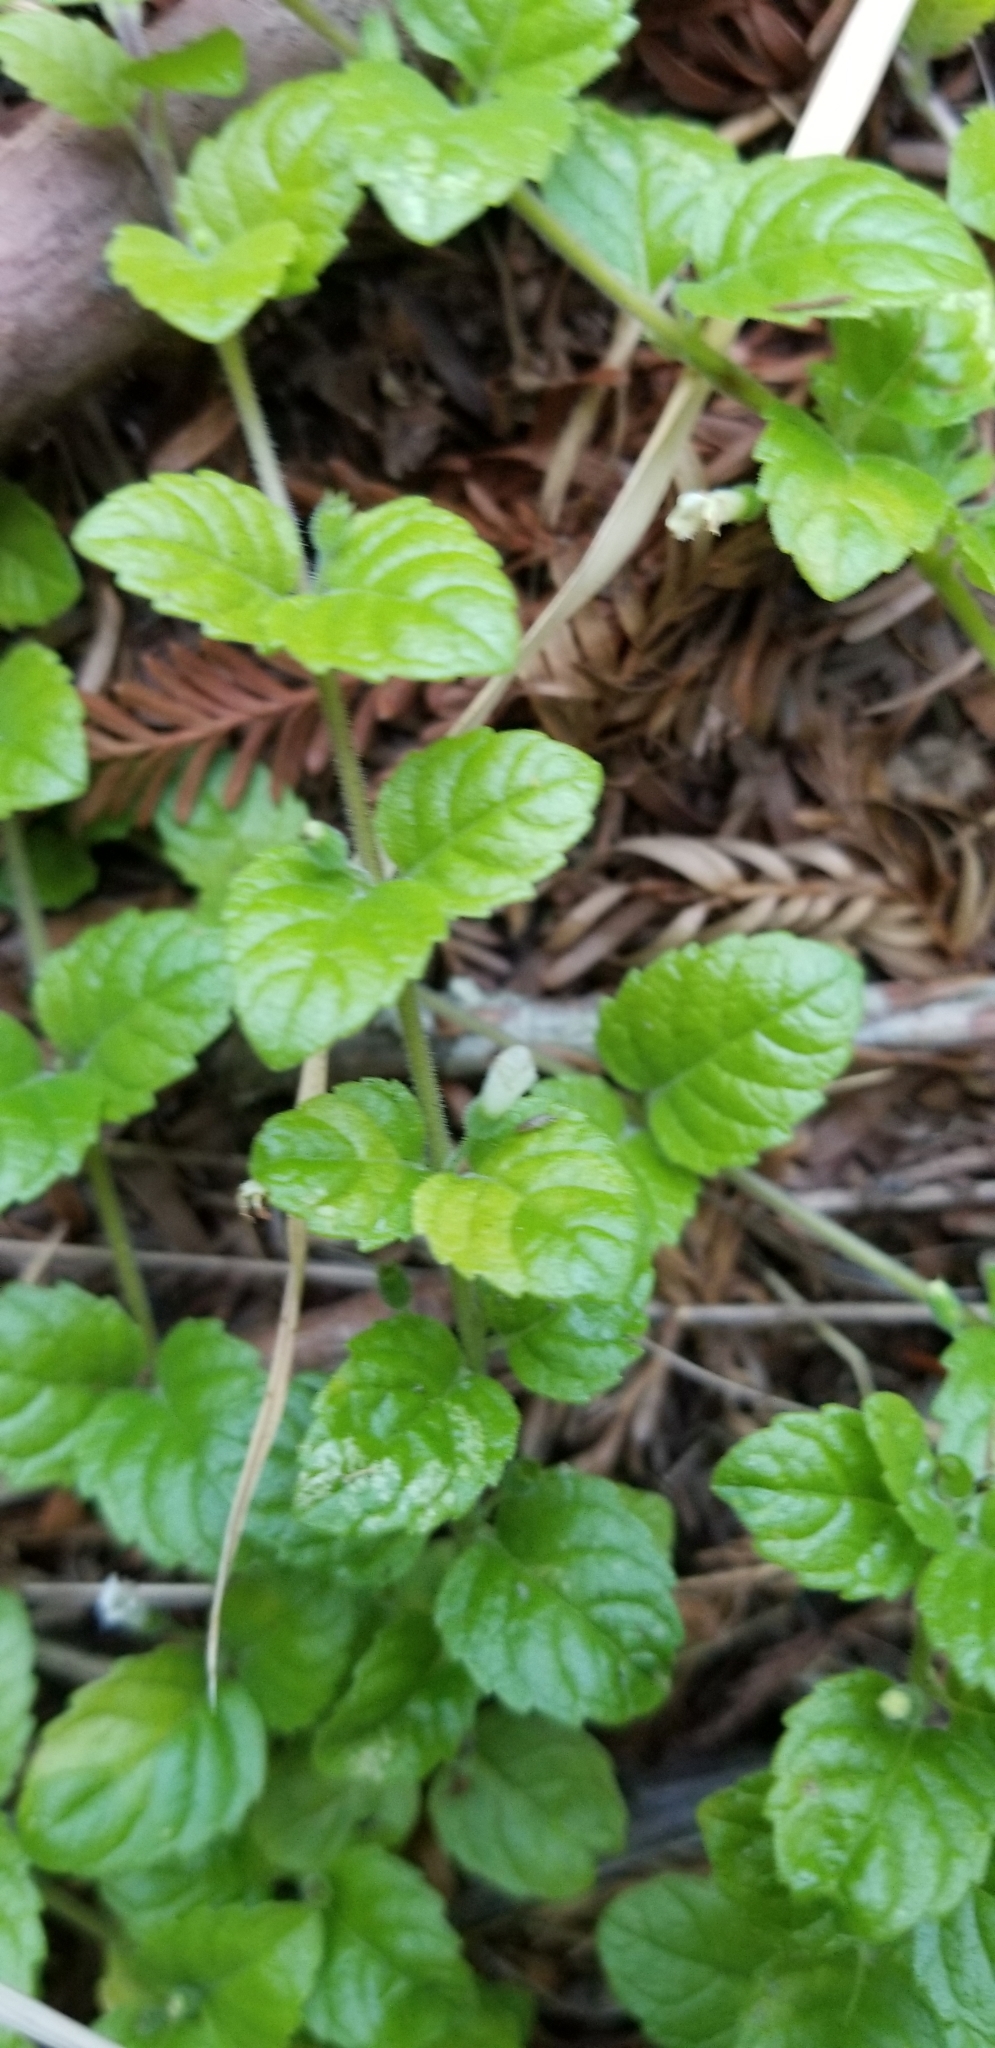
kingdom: Plantae
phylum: Tracheophyta
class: Magnoliopsida
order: Lamiales
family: Lamiaceae
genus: Micromeria
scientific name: Micromeria douglasii
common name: Yerba buena
